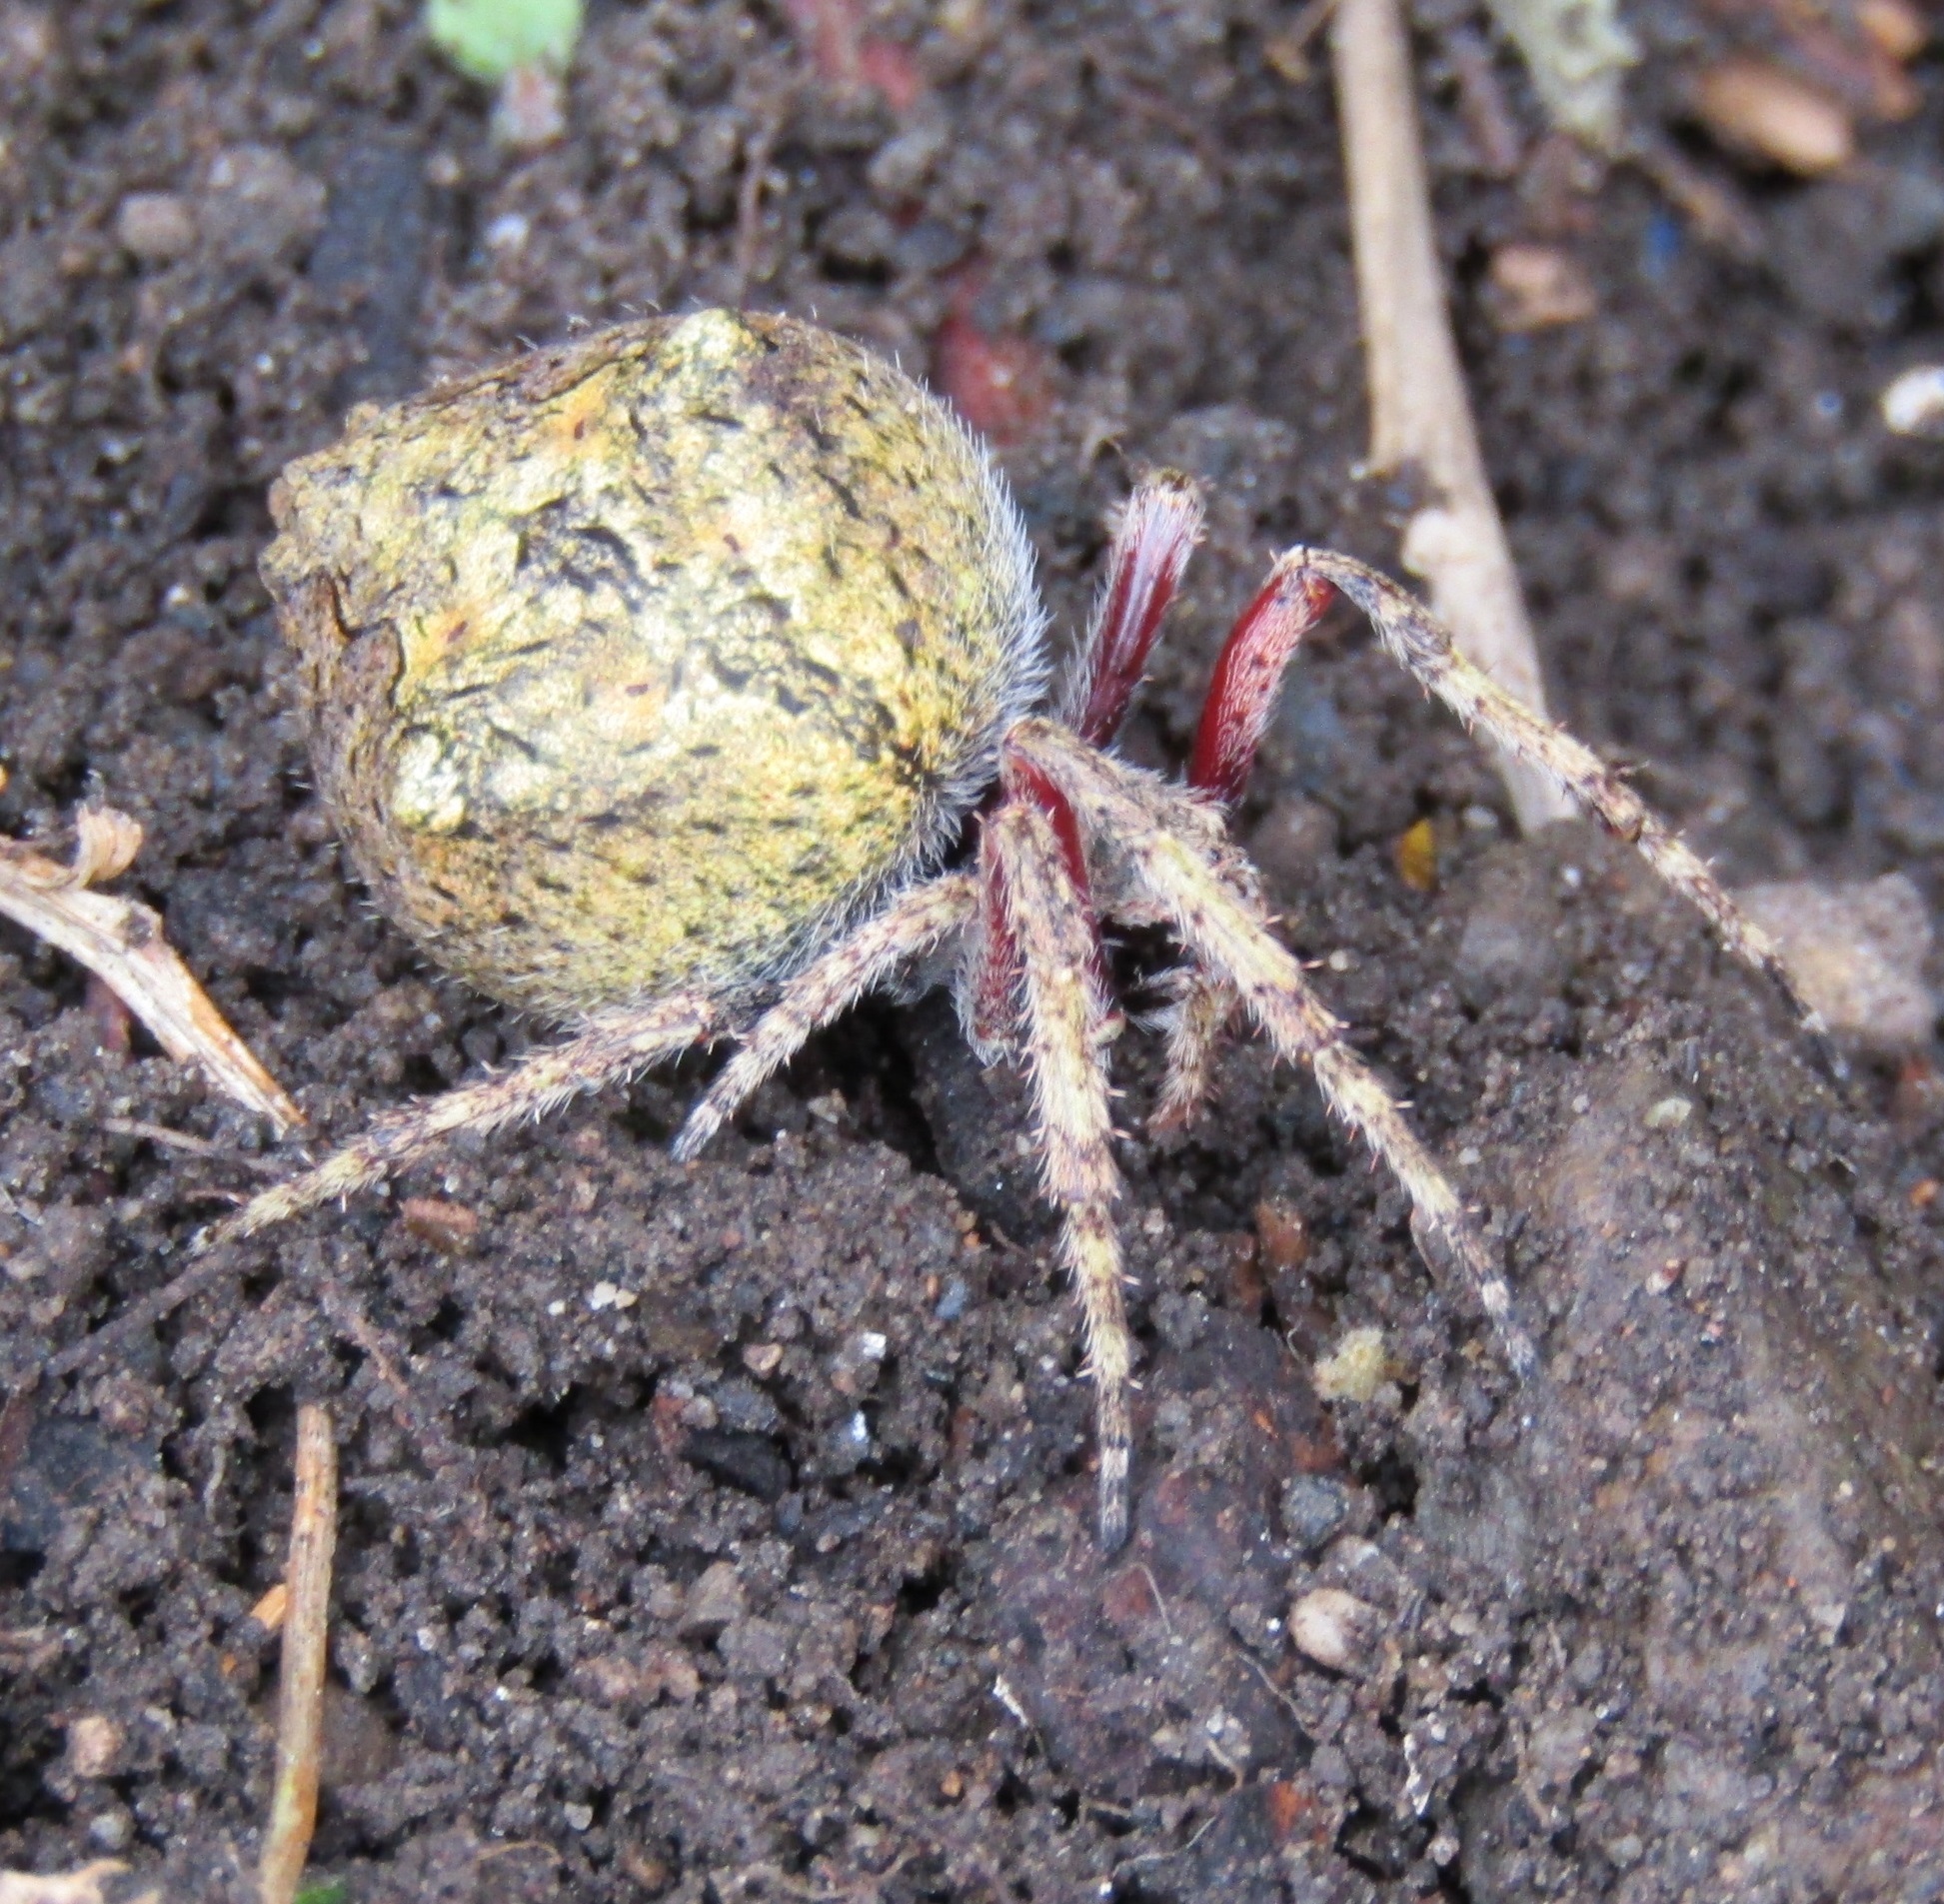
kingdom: Animalia
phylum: Arthropoda
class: Arachnida
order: Araneae
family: Araneidae
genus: Eriophora
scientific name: Eriophora pustulosa
